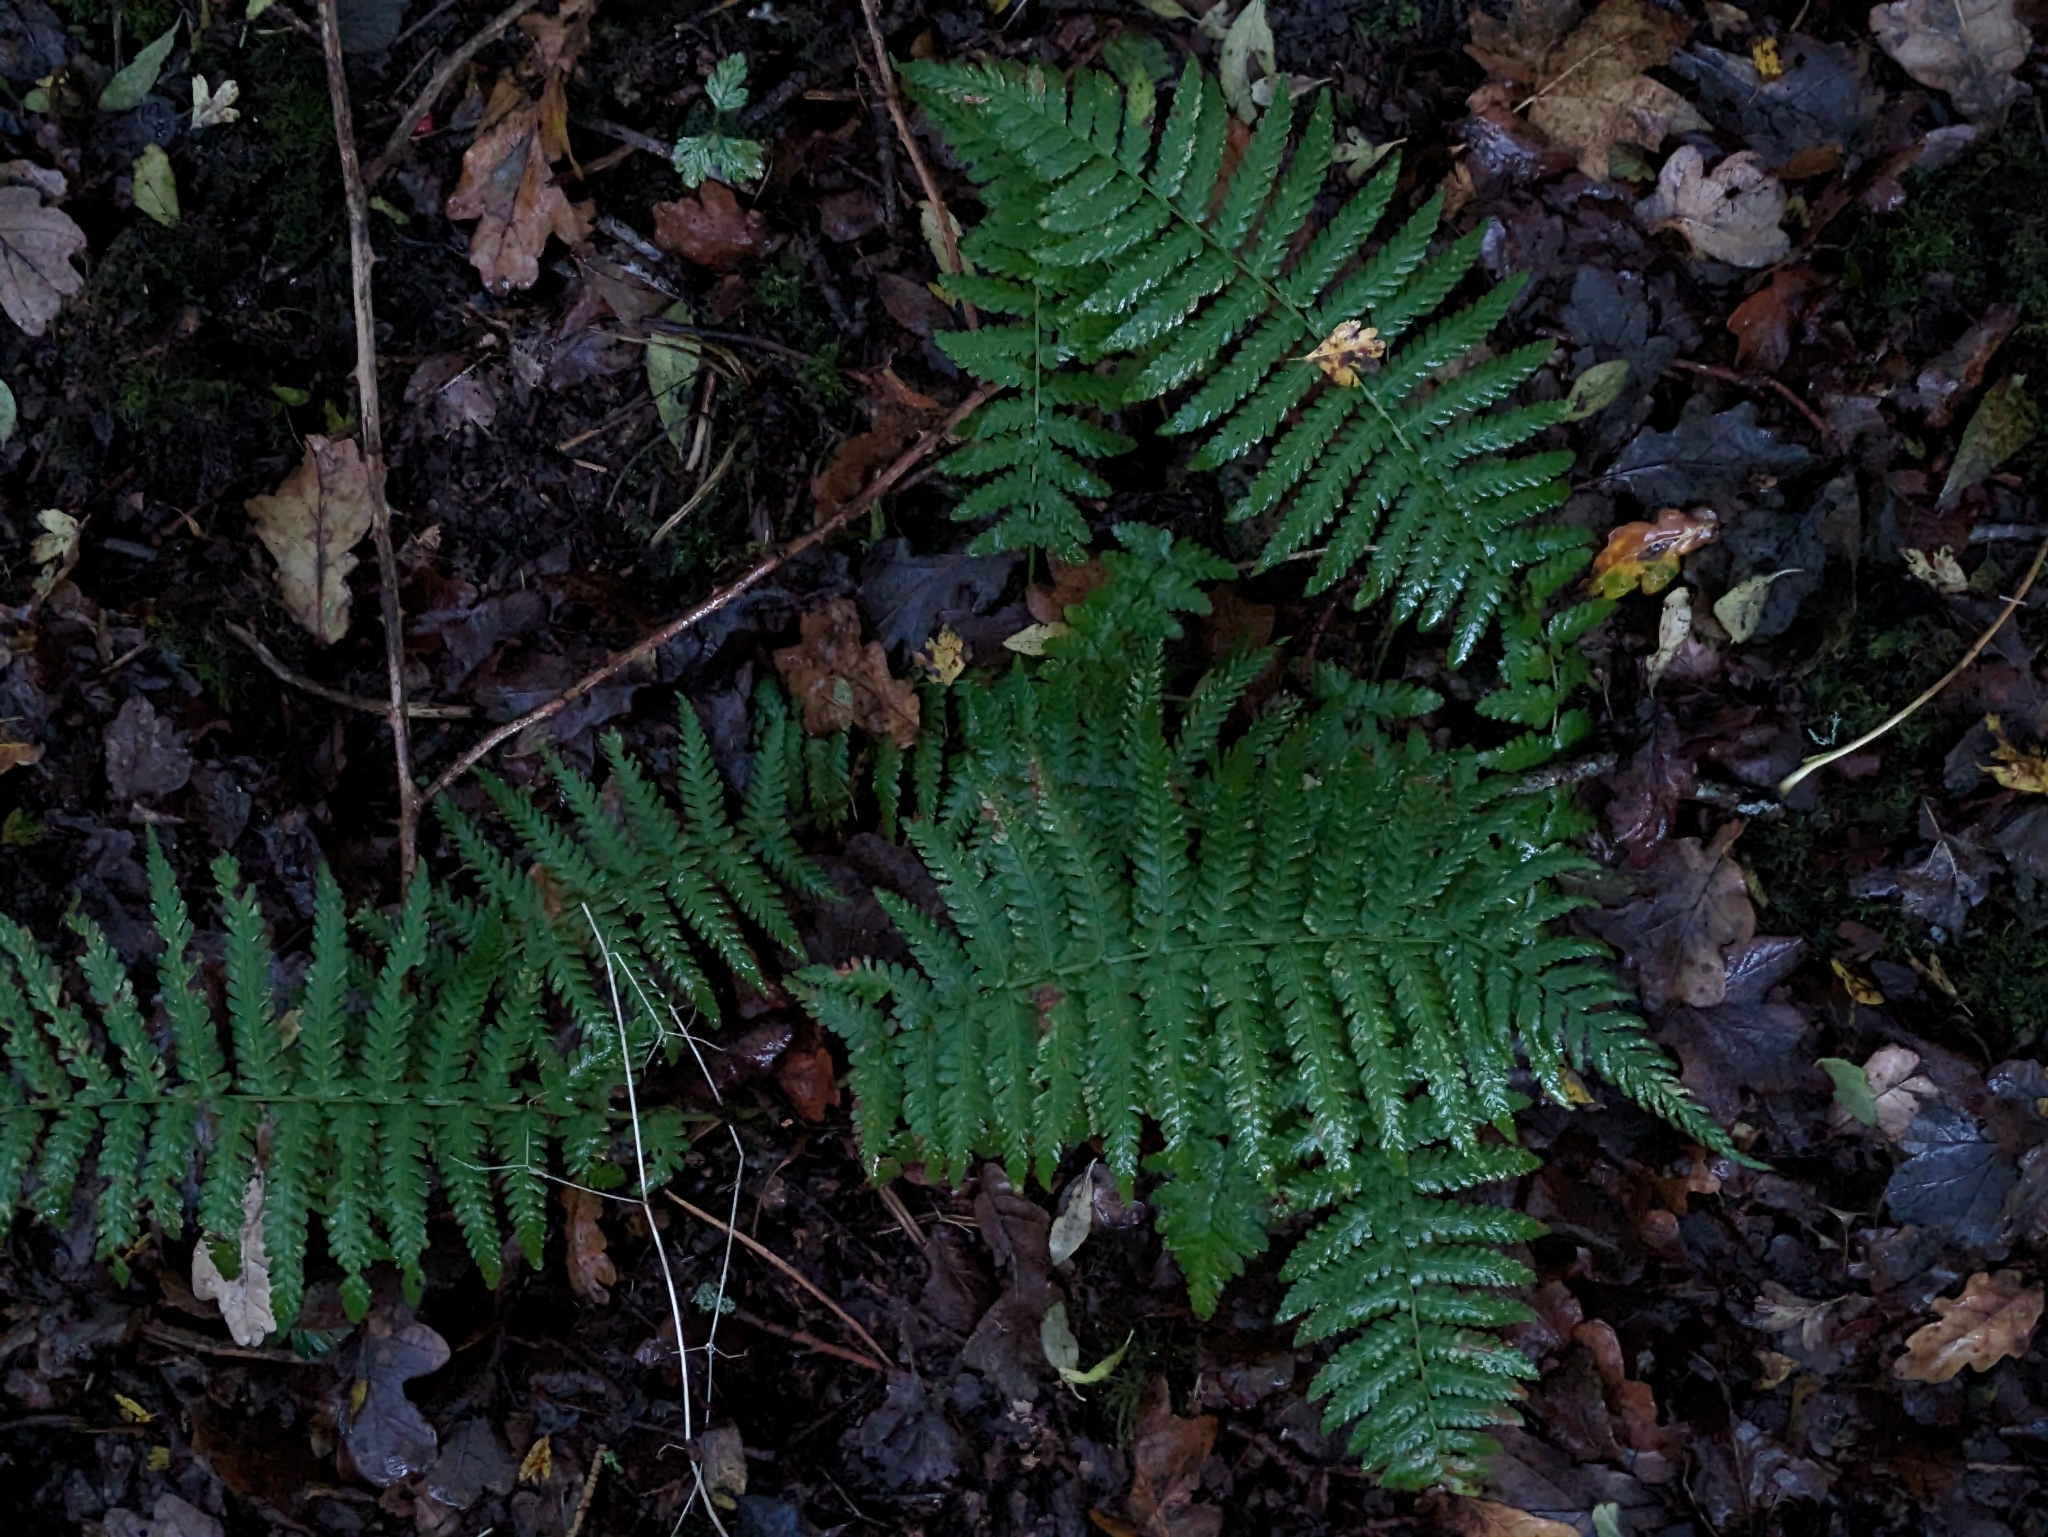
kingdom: Plantae
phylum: Tracheophyta
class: Polypodiopsida
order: Polypodiales
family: Dryopteridaceae
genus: Dryopteris
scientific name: Dryopteris filix-mas
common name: Male fern
